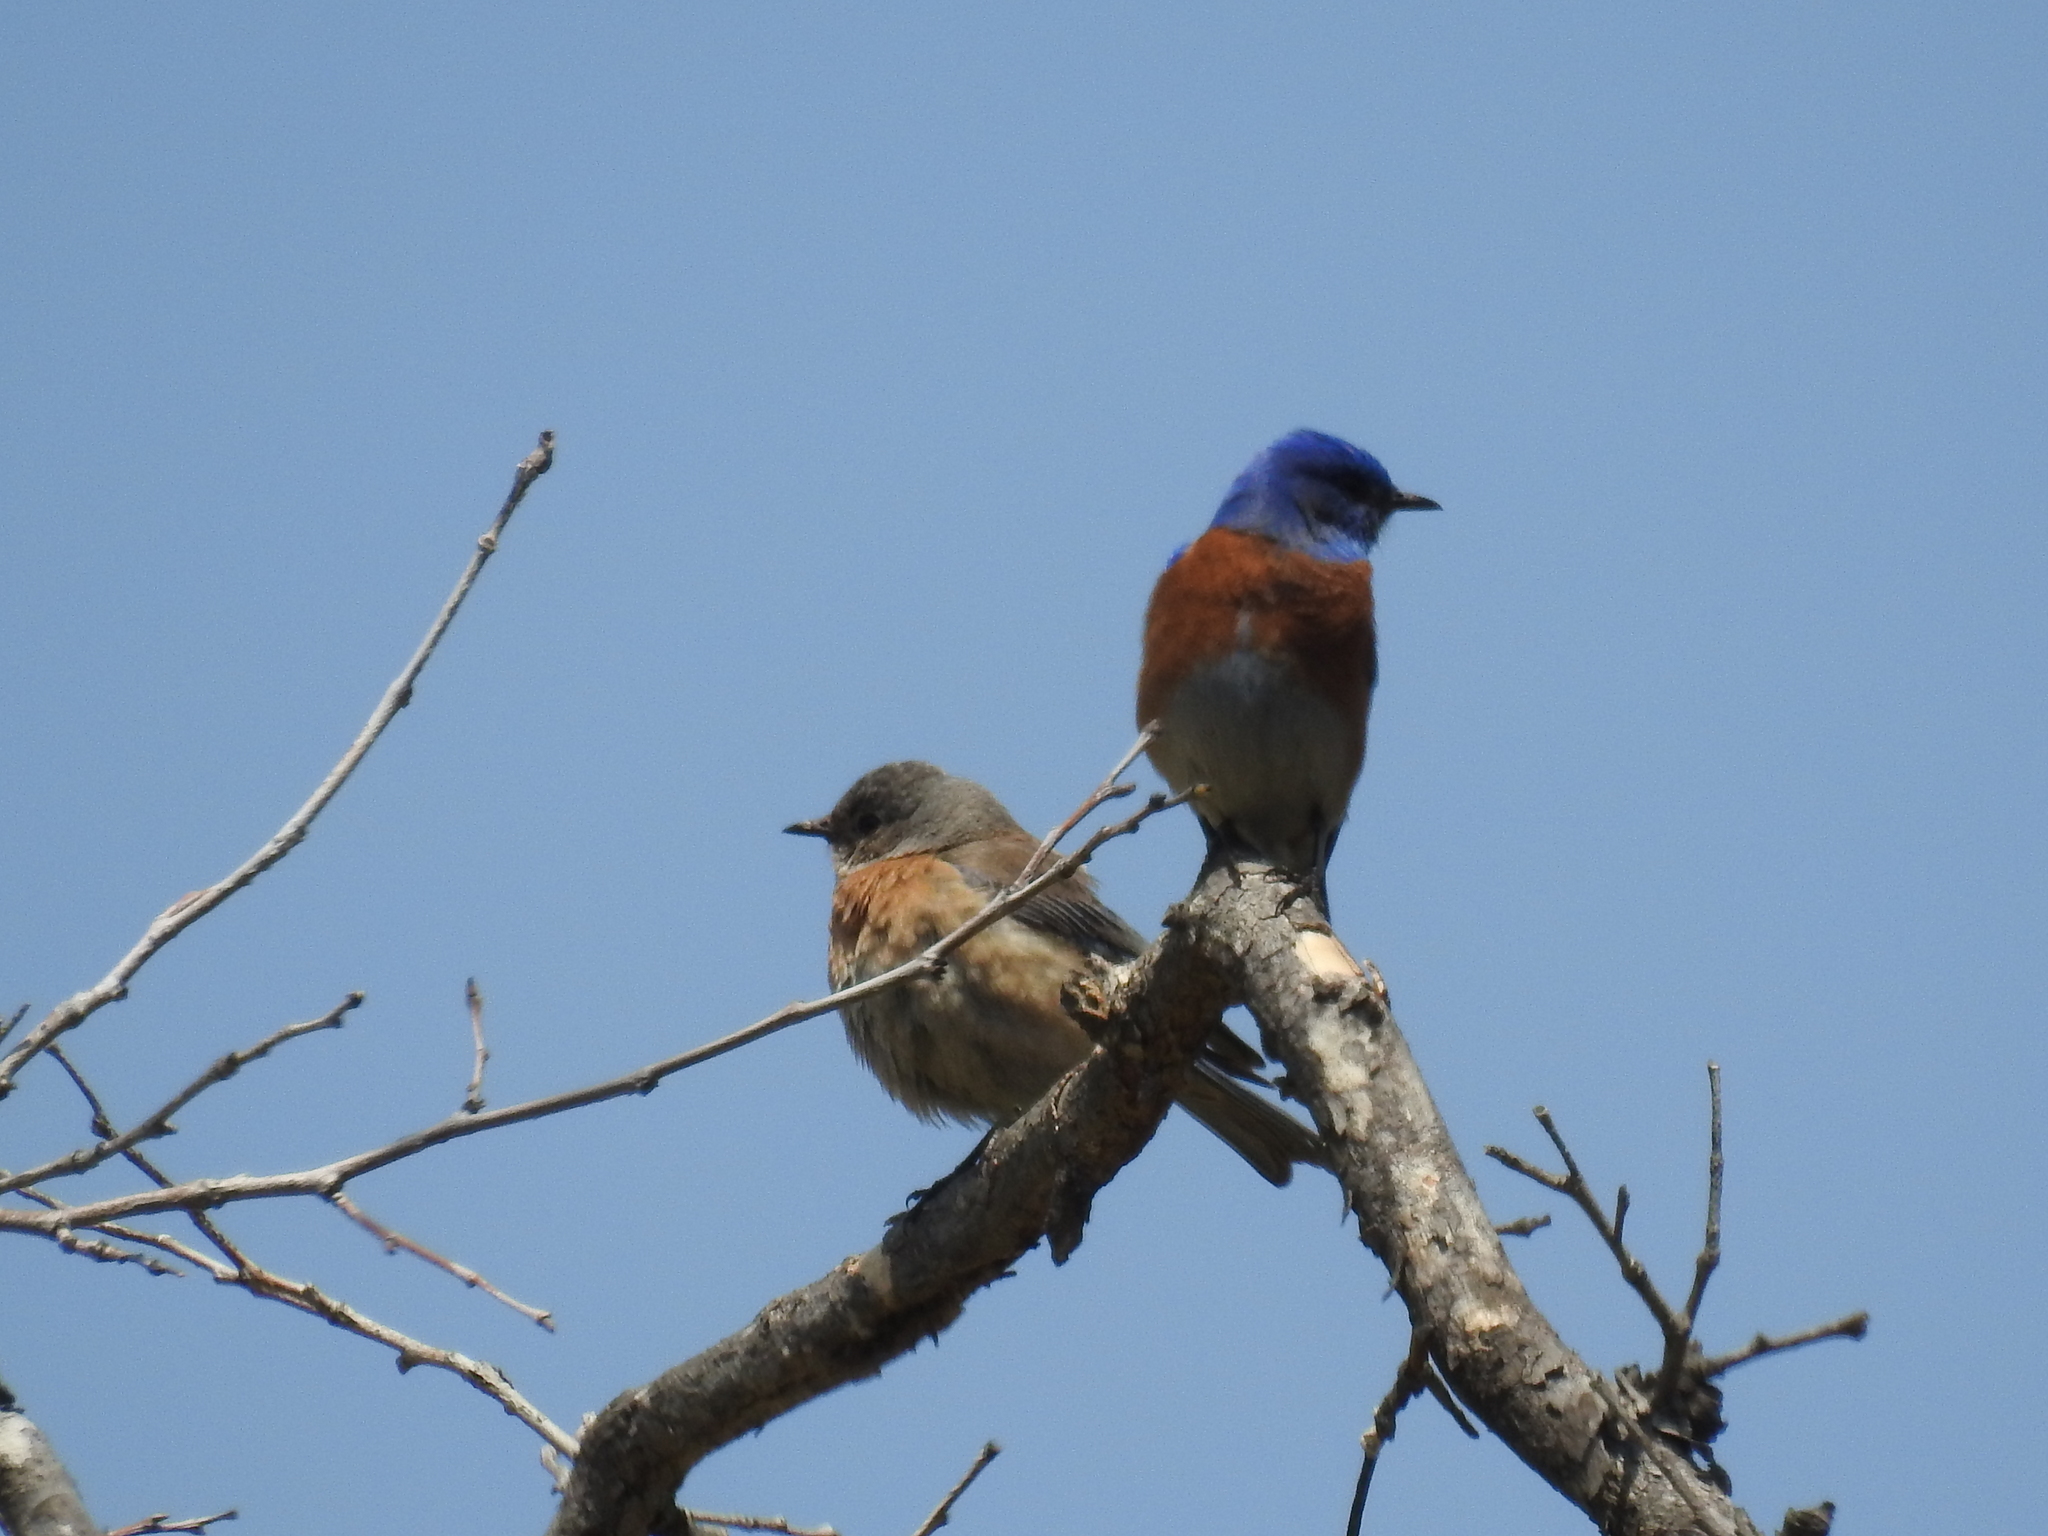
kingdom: Animalia
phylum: Chordata
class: Aves
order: Passeriformes
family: Turdidae
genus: Sialia
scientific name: Sialia mexicana
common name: Western bluebird
